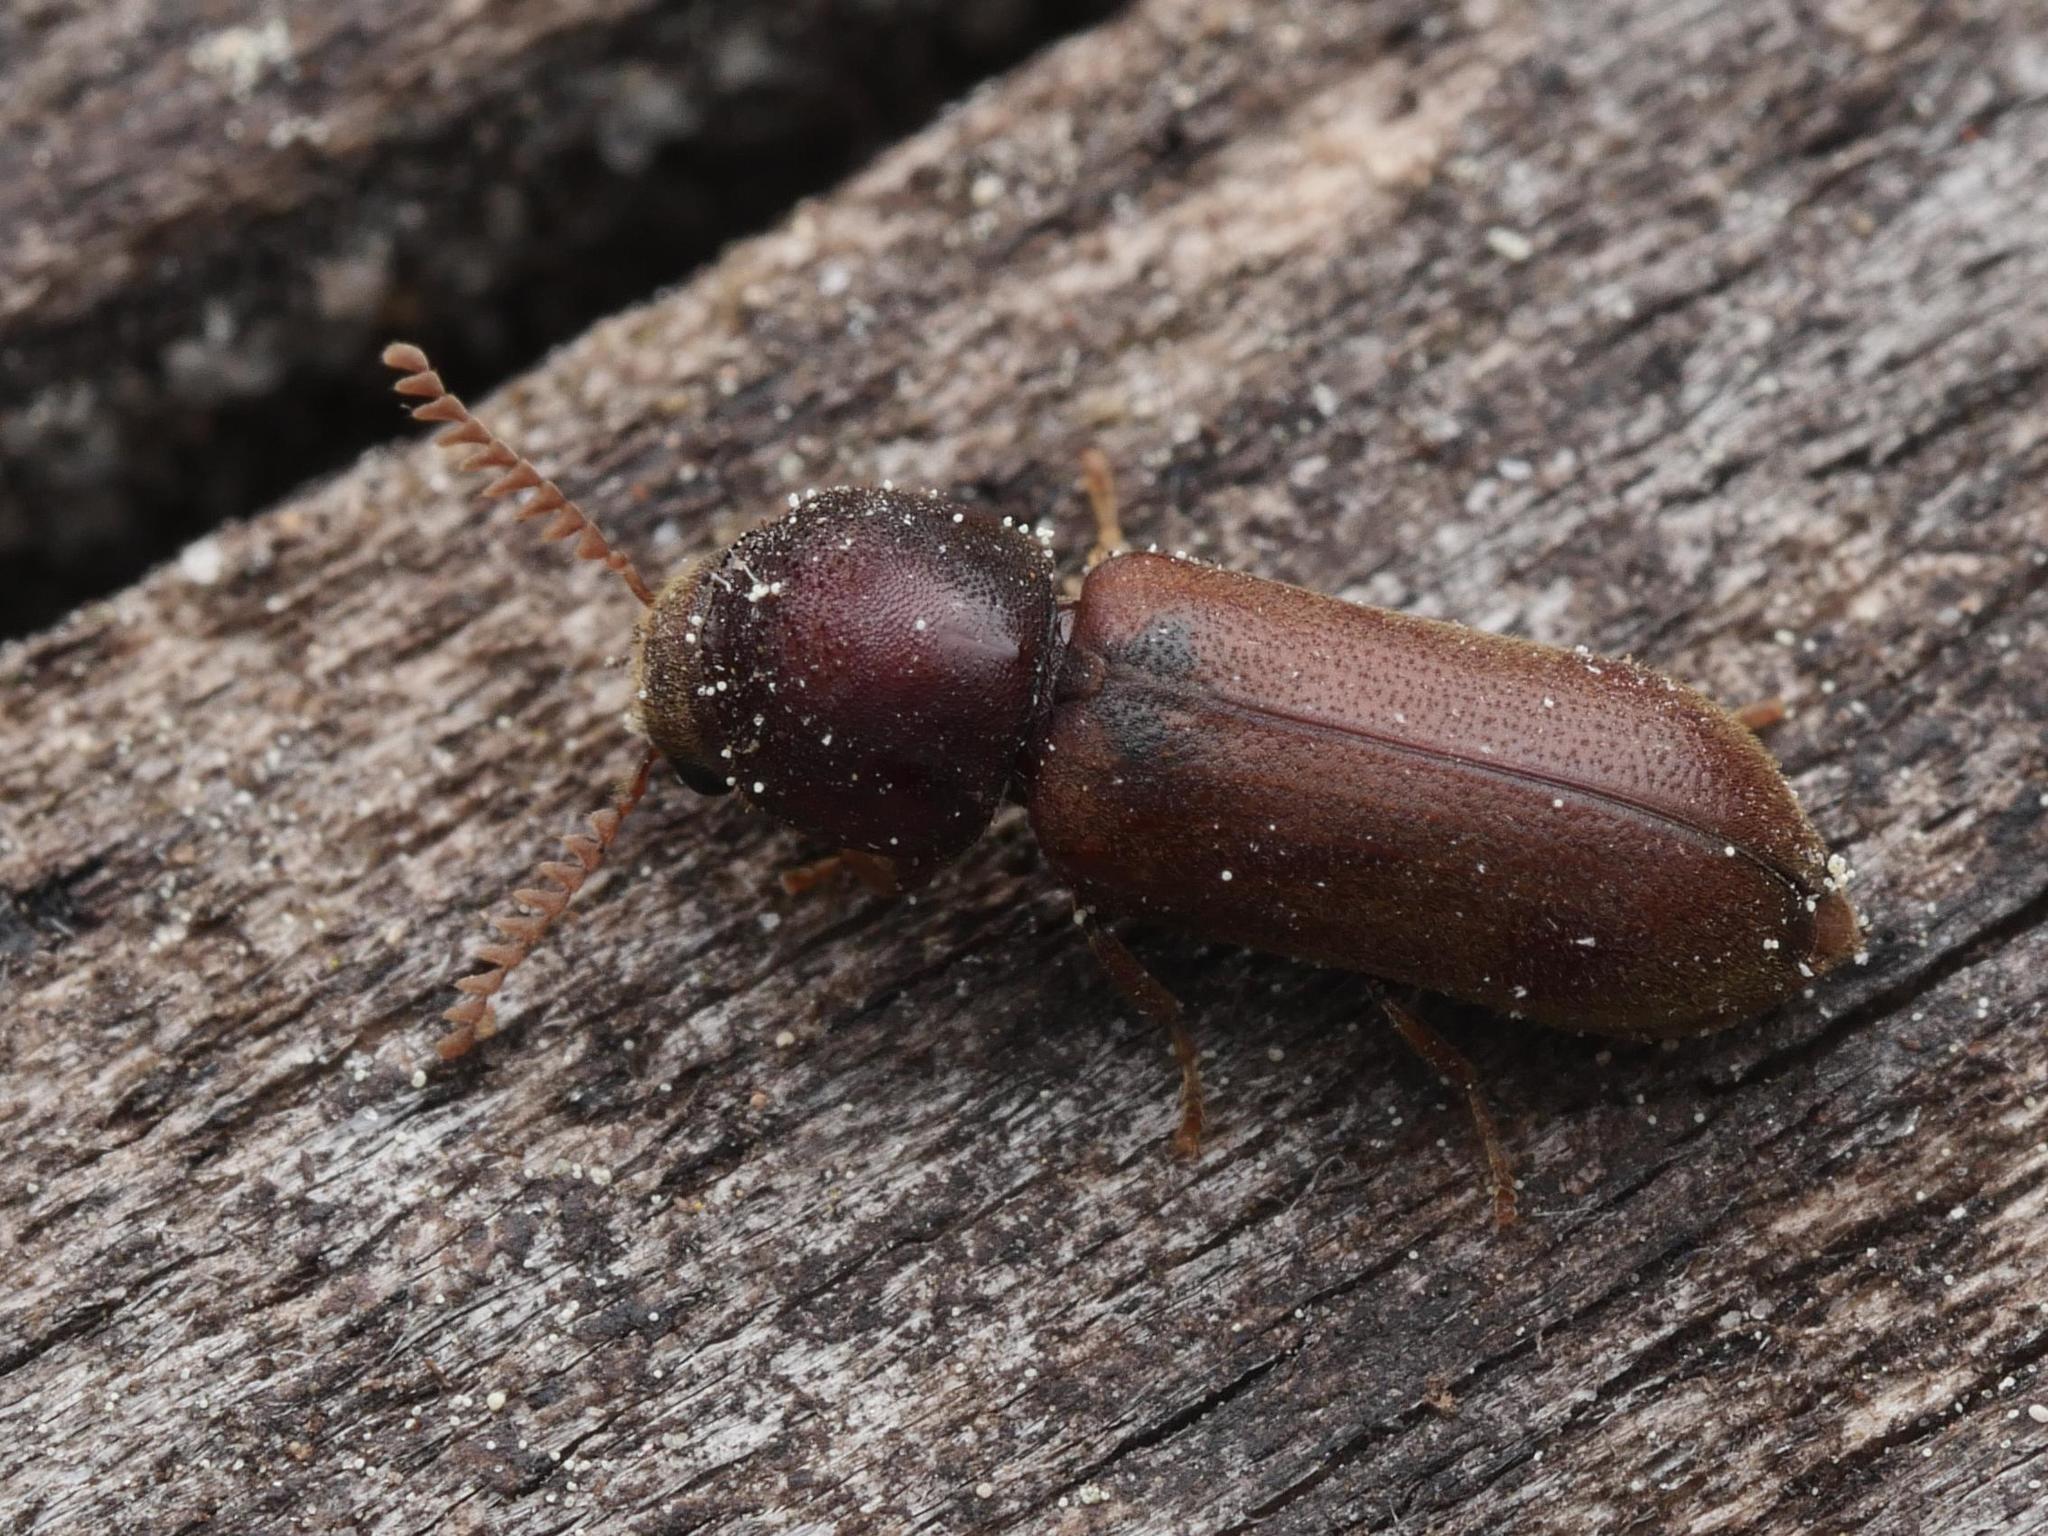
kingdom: Animalia
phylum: Arthropoda
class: Insecta
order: Coleoptera
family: Anobiidae
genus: Ptilinus
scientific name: Ptilinus pectinicornis
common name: Fan-bearing wood-borer
